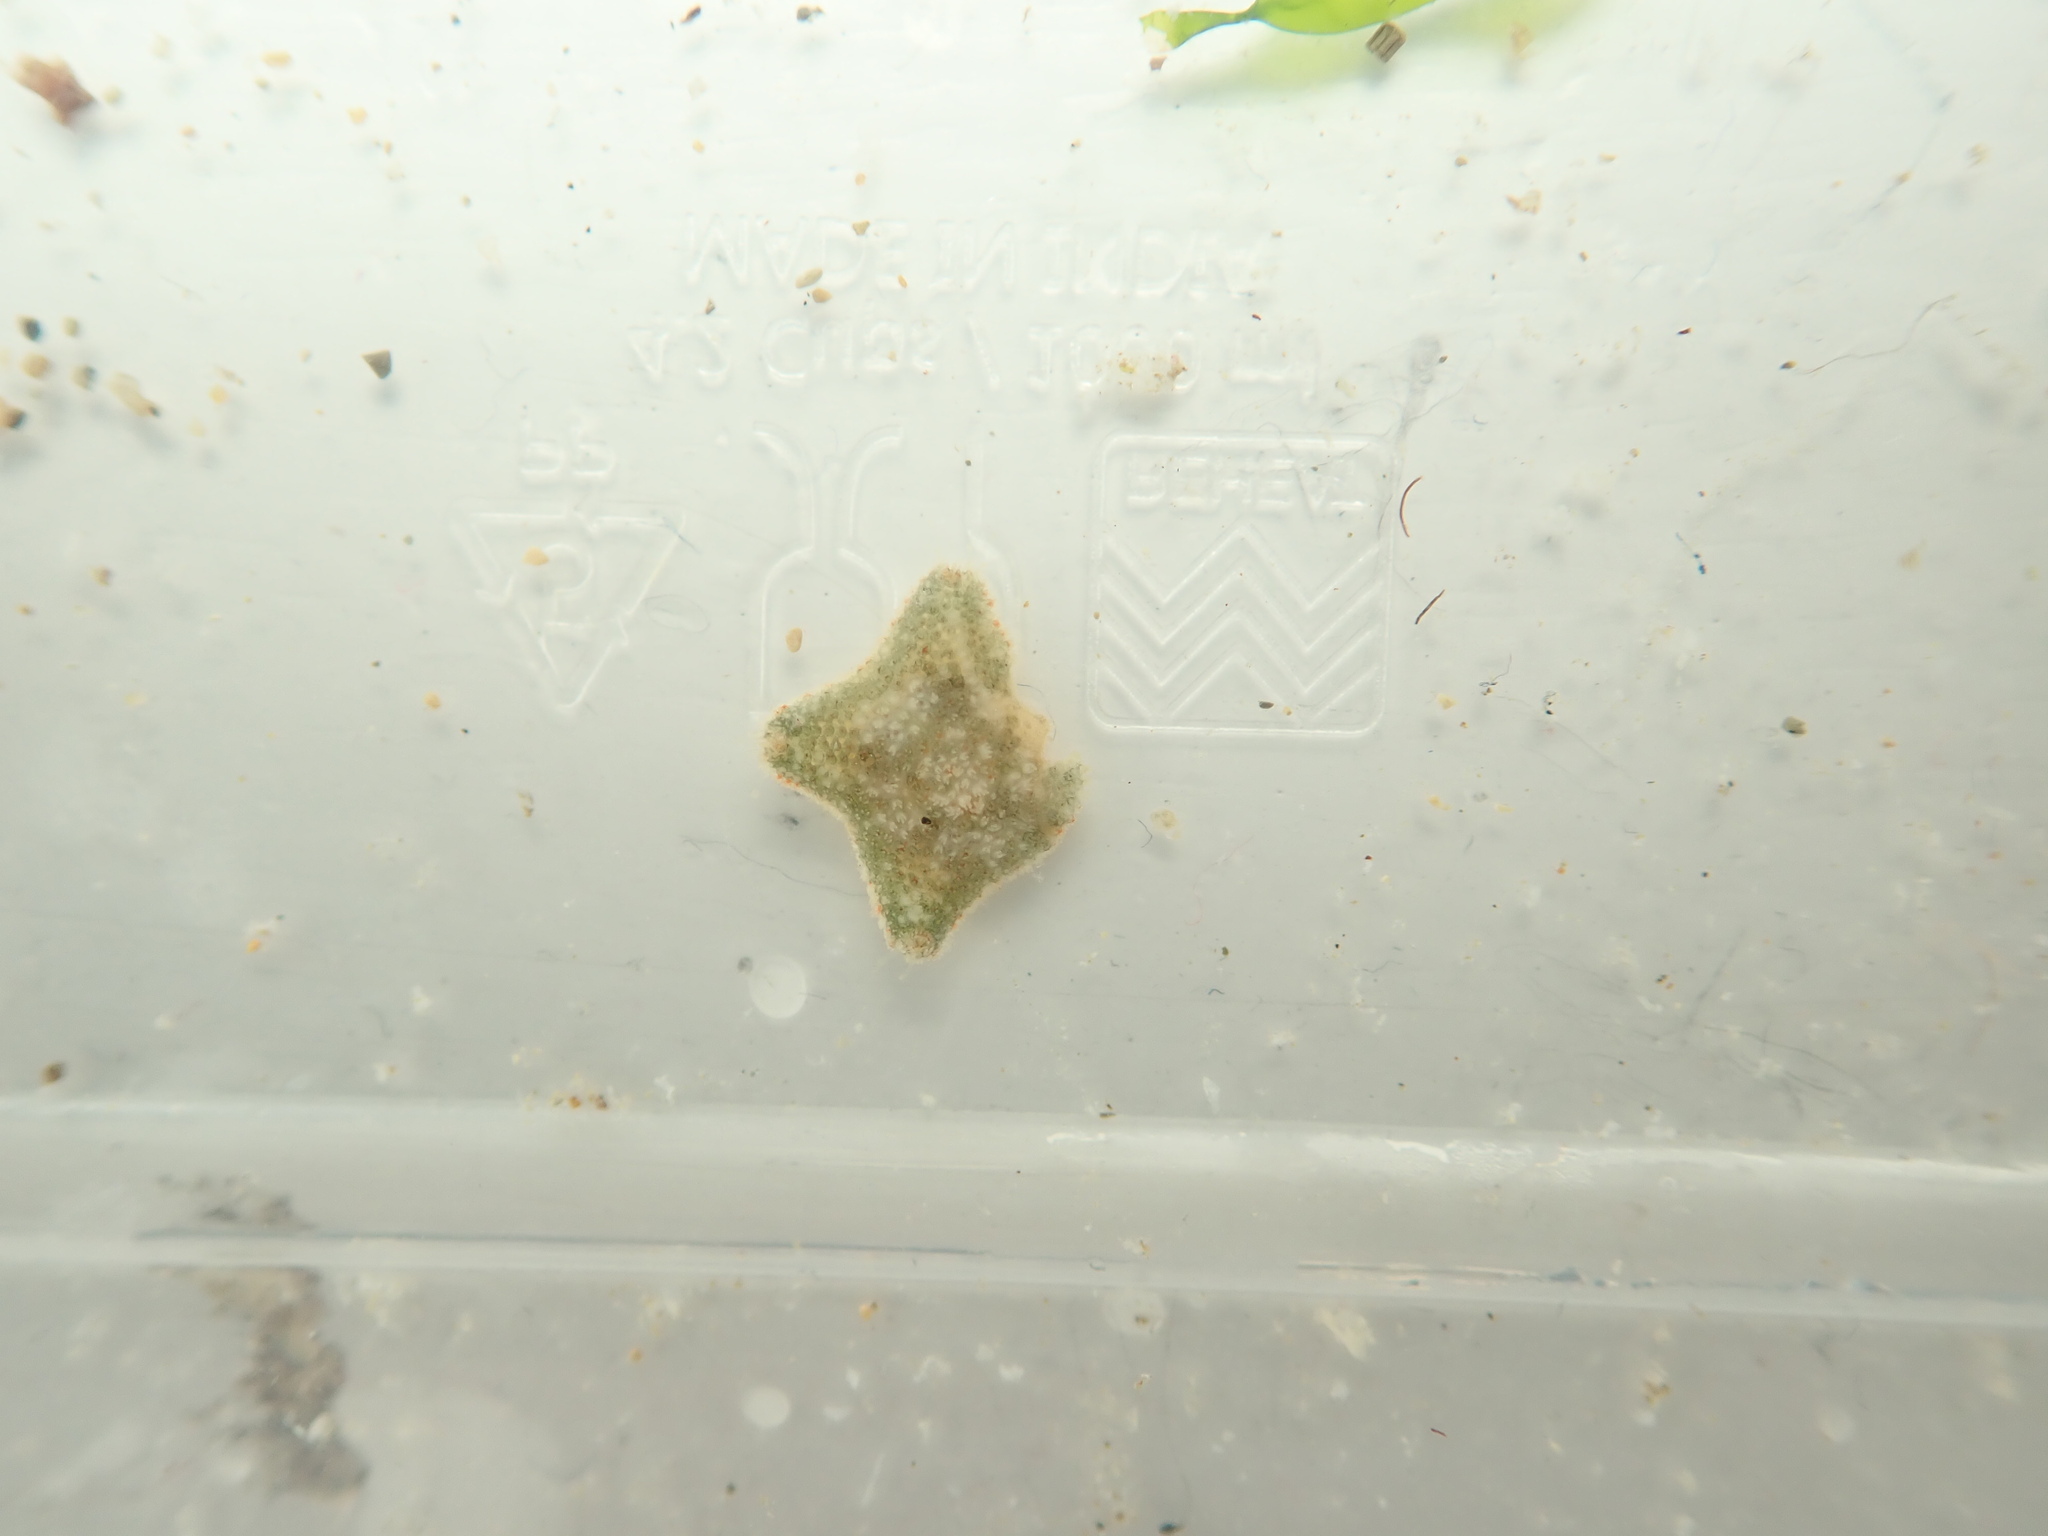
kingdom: Animalia
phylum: Echinodermata
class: Asteroidea
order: Valvatida
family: Asterinidae
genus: Asterina
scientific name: Asterina gibbosa
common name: Cushion star
